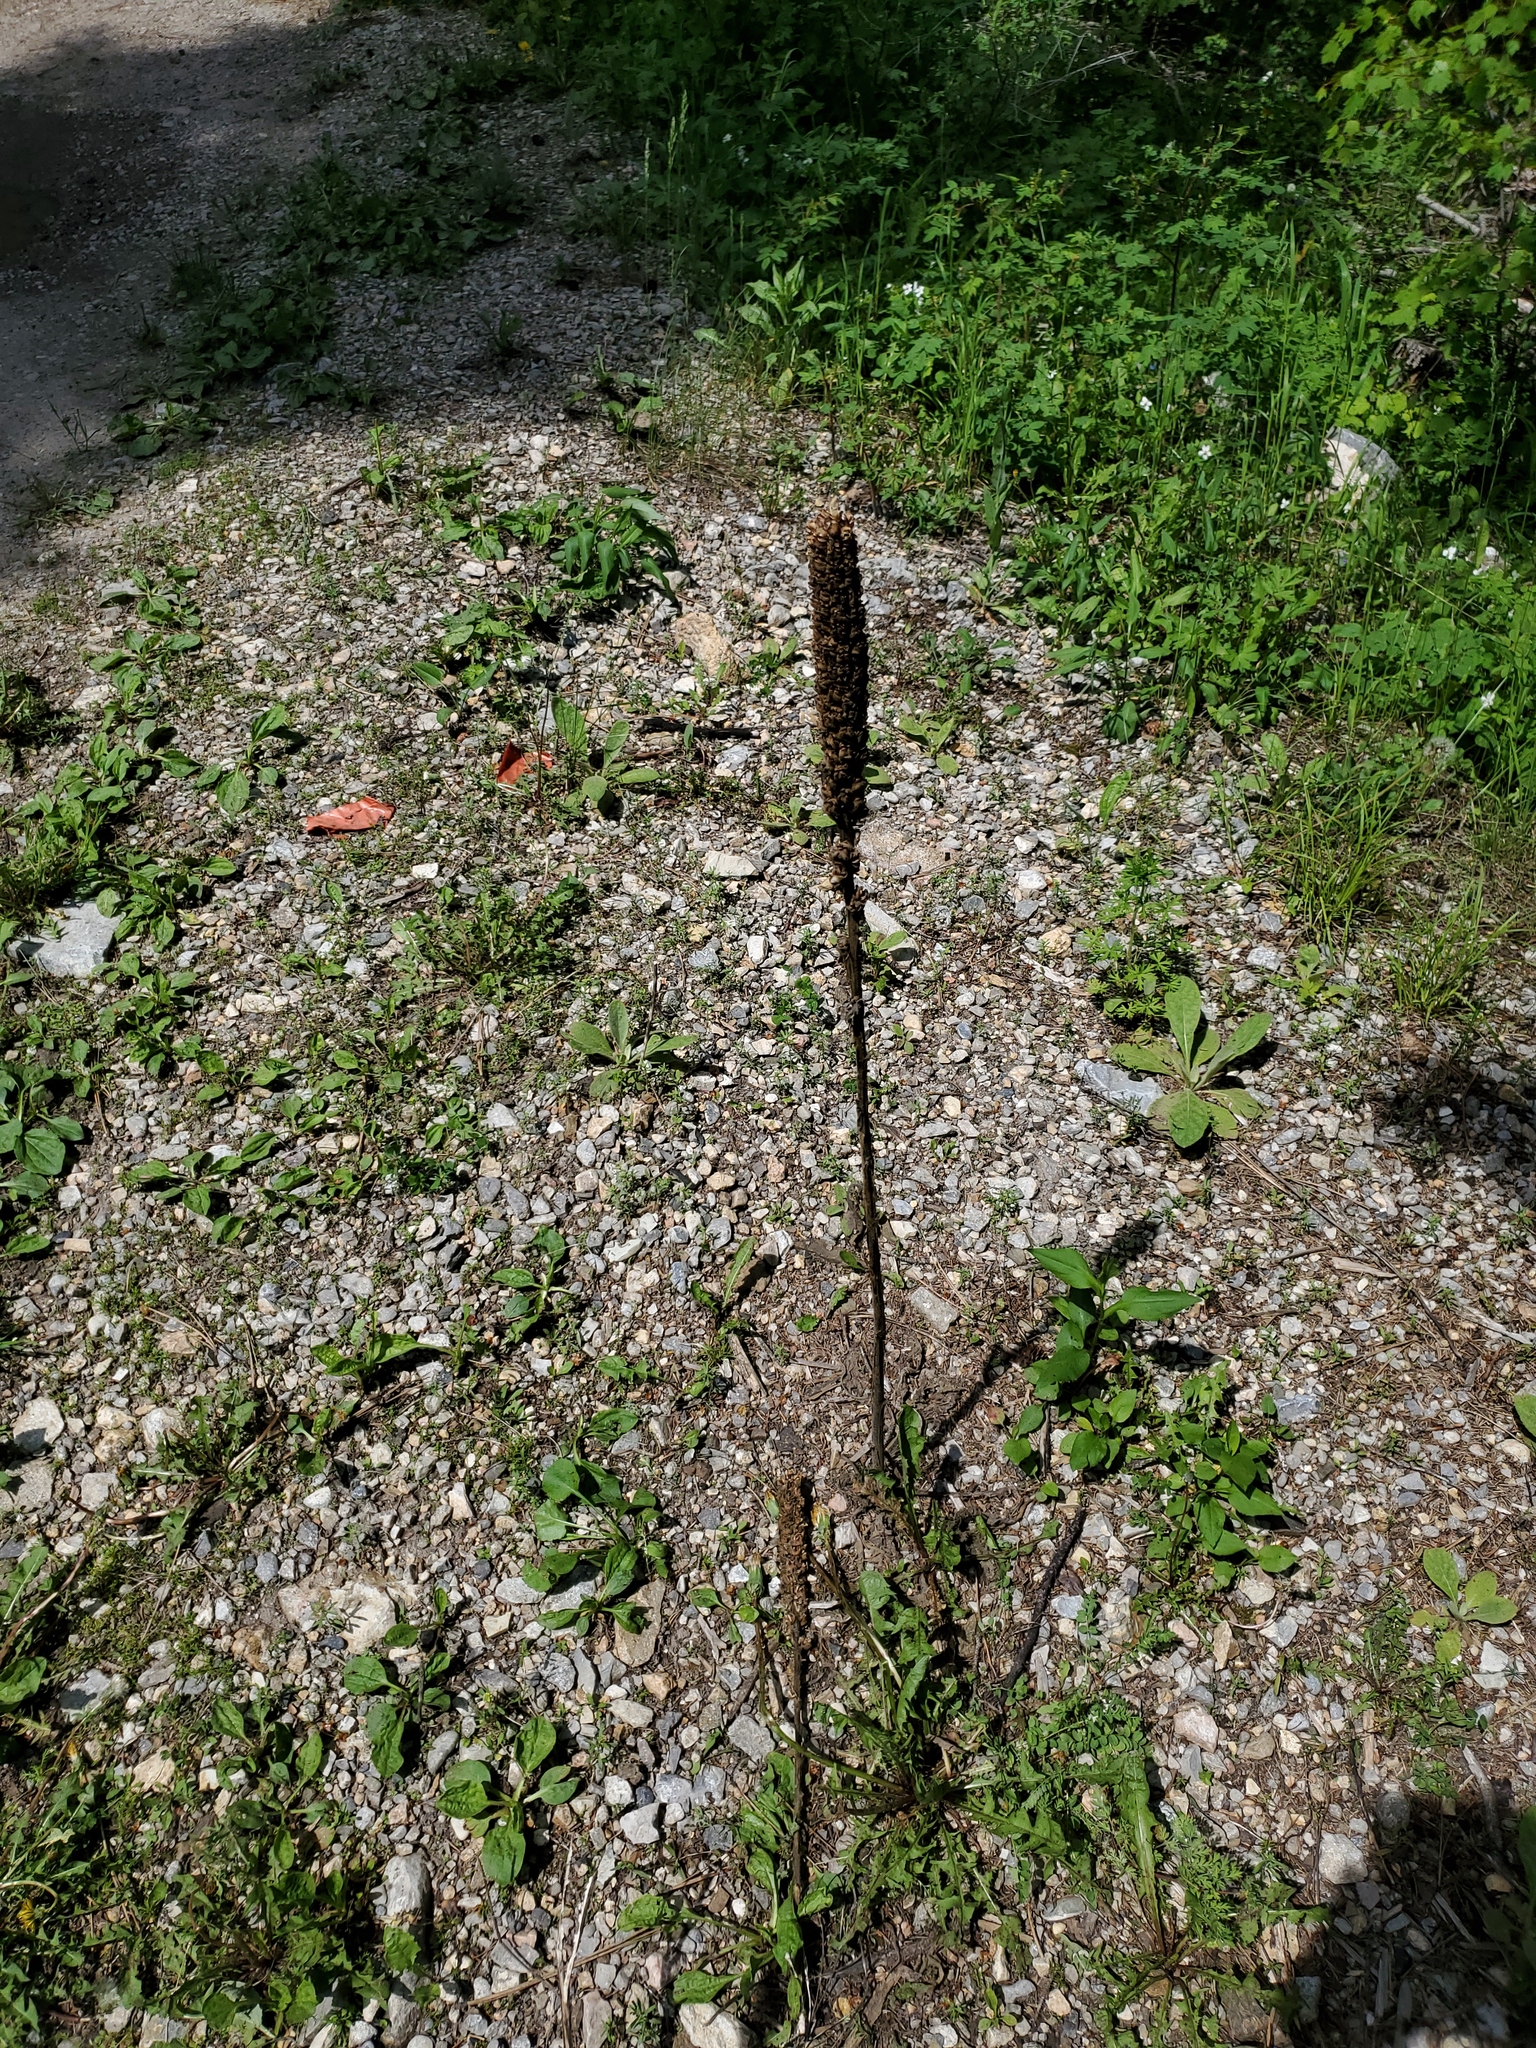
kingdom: Plantae
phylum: Tracheophyta
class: Magnoliopsida
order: Lamiales
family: Scrophulariaceae
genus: Verbascum
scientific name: Verbascum thapsus
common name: Common mullein
